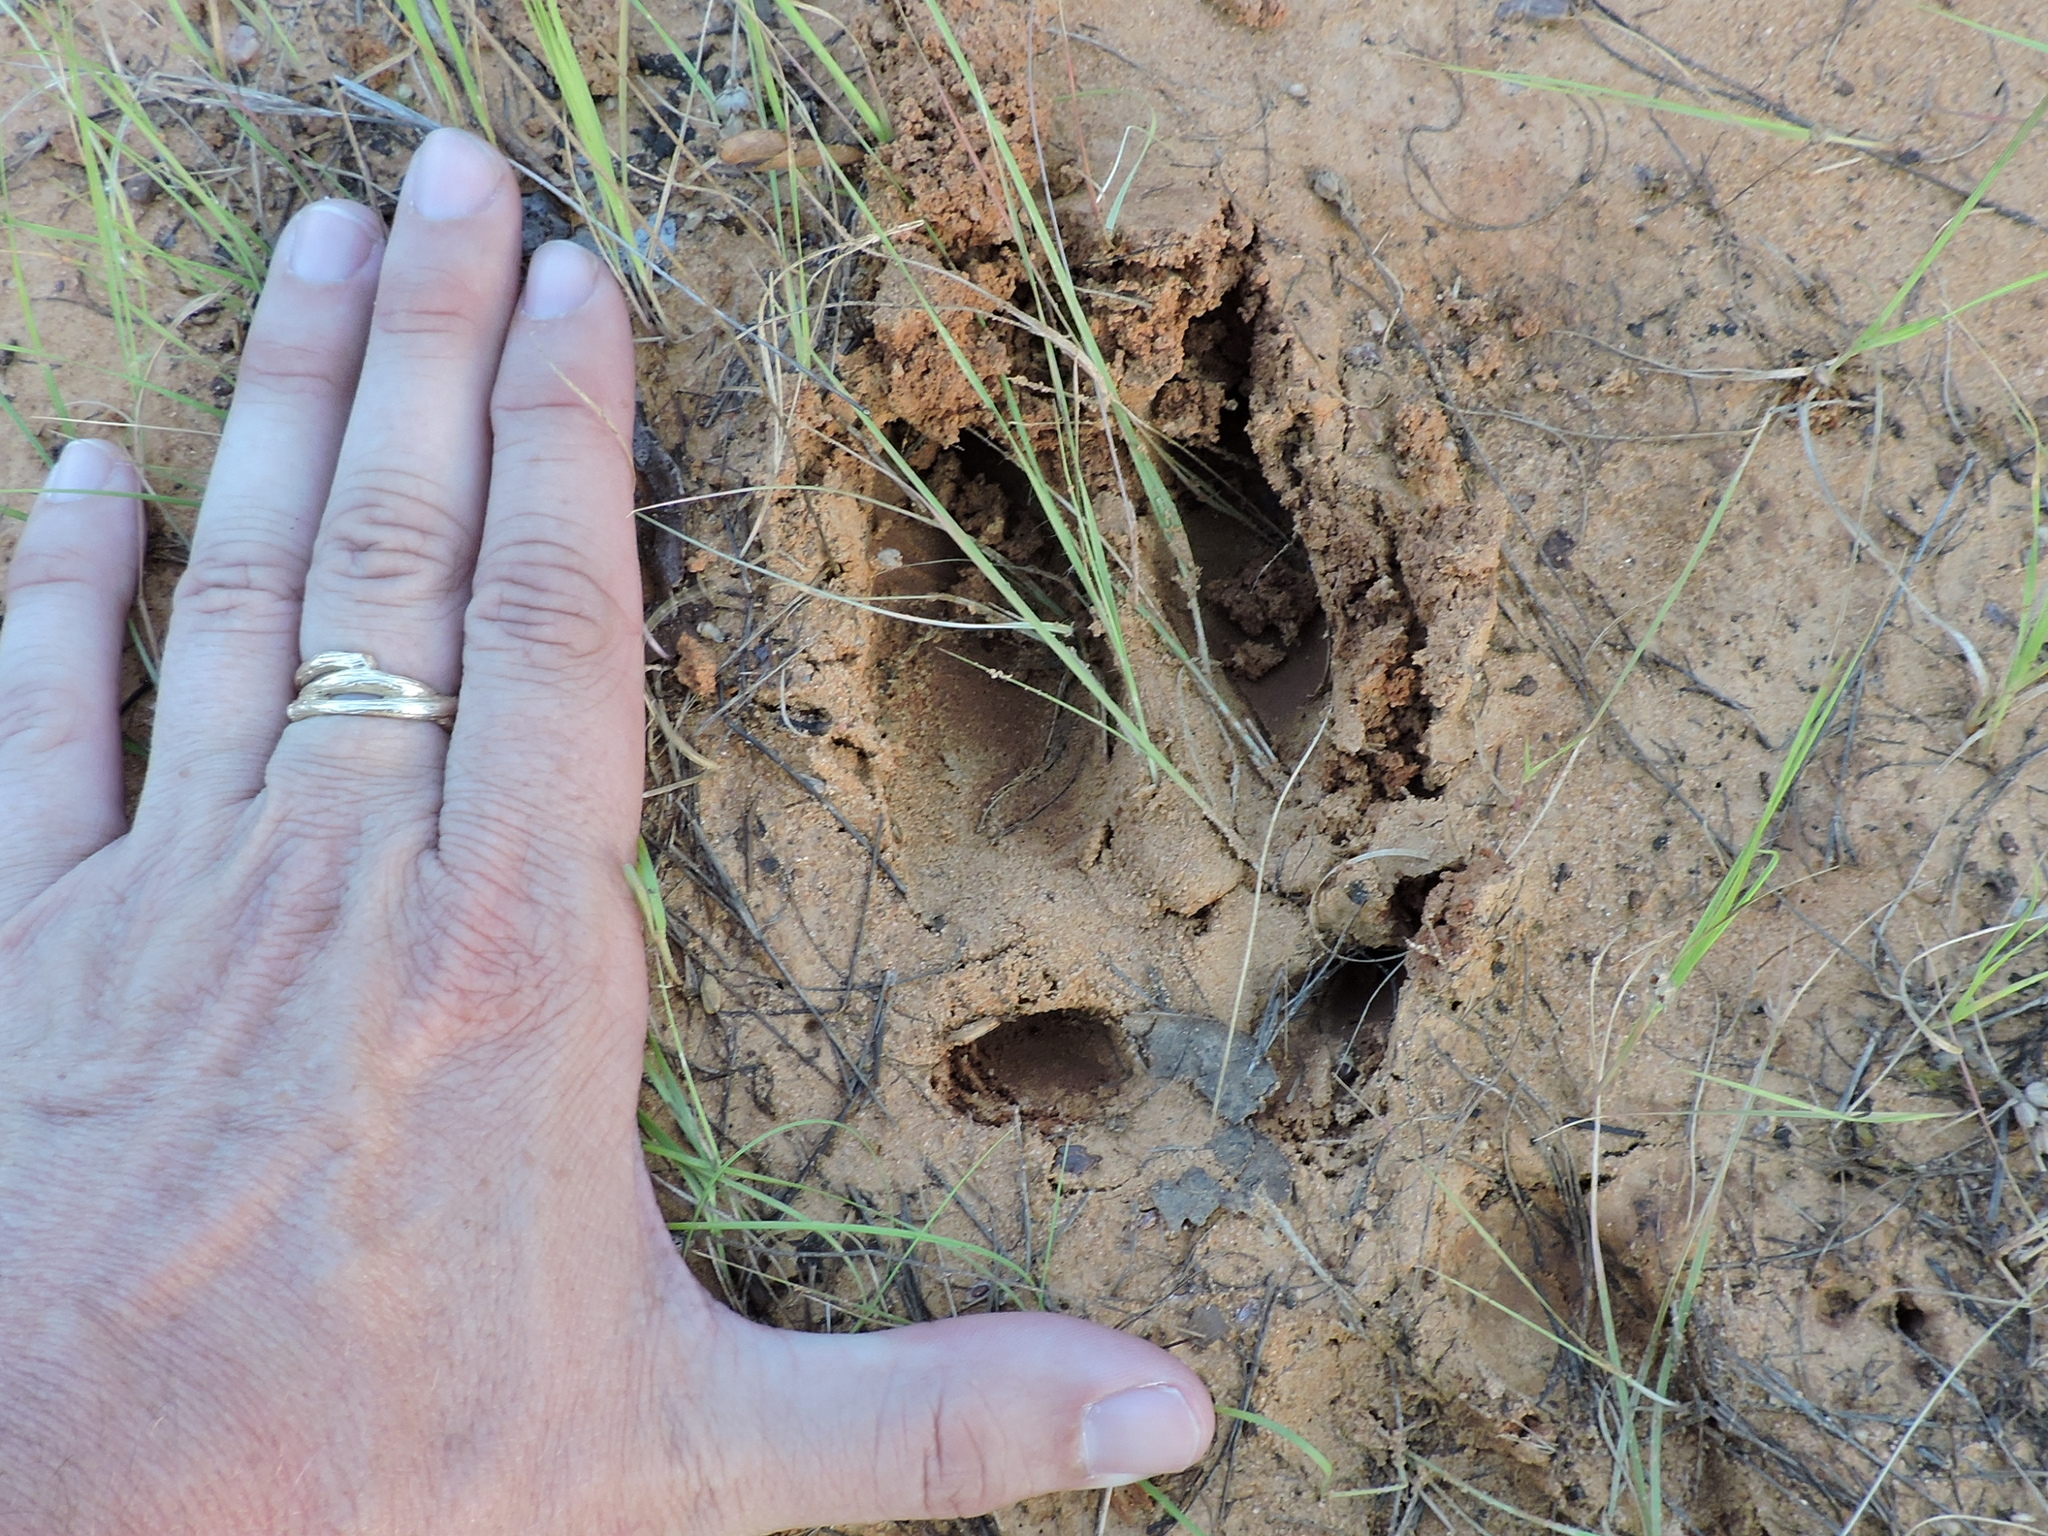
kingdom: Animalia
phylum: Chordata
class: Mammalia
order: Artiodactyla
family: Suidae
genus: Sus
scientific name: Sus scrofa
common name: Wild boar
